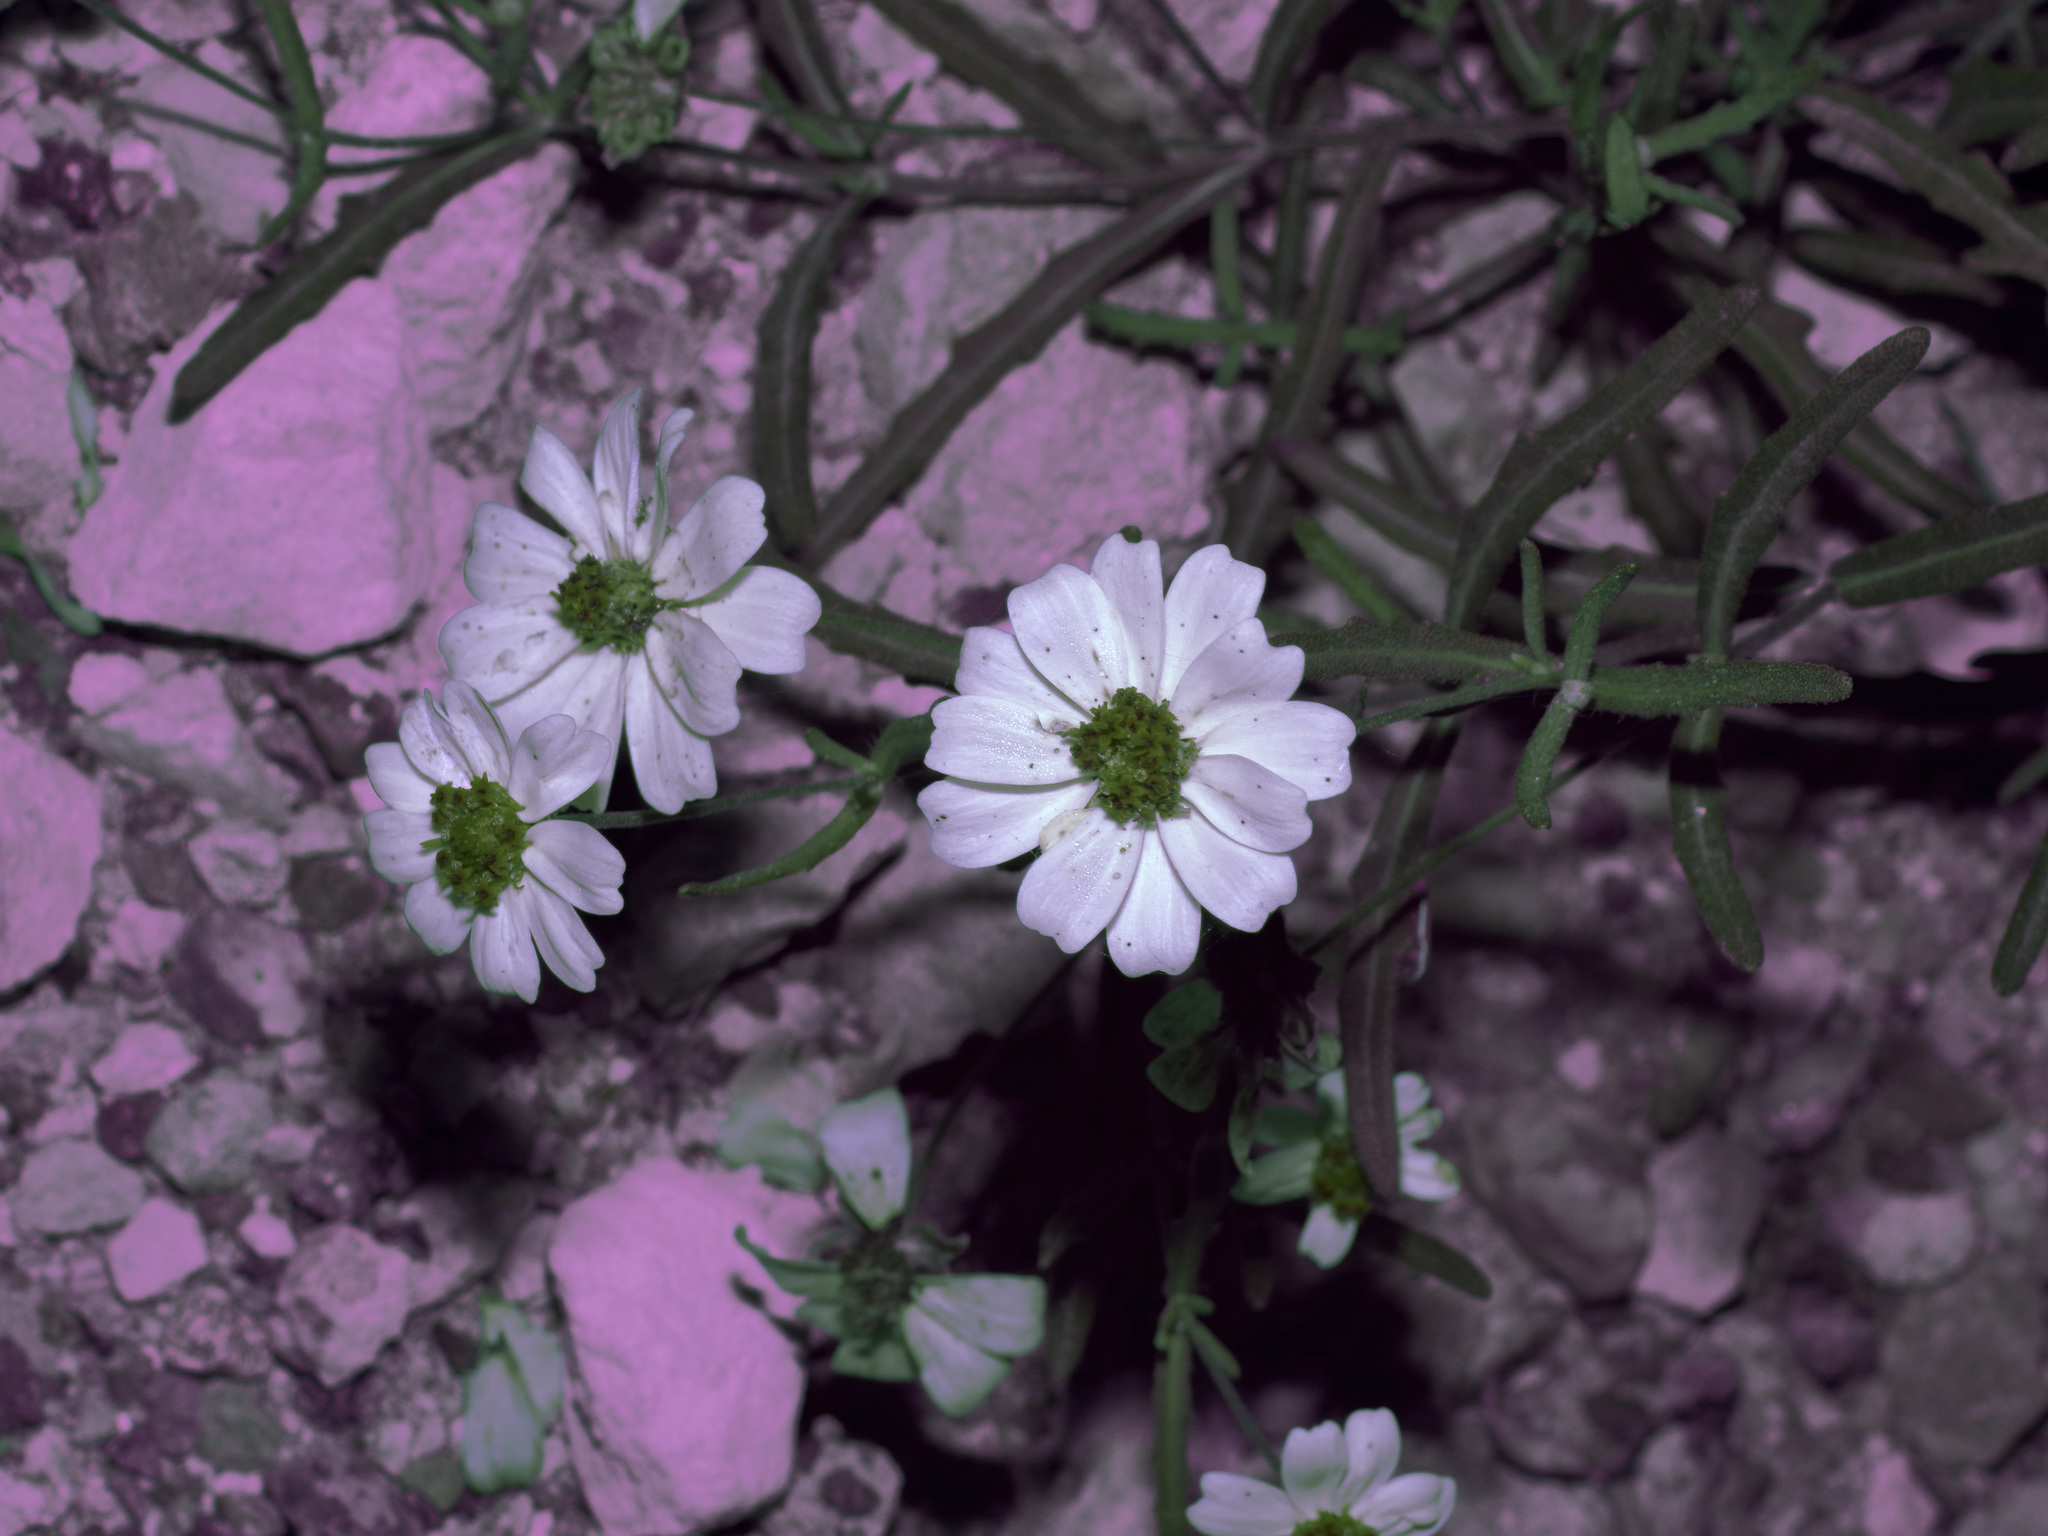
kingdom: Plantae
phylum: Tracheophyta
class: Magnoliopsida
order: Asterales
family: Asteraceae
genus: Melampodium
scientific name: Melampodium leucanthum
